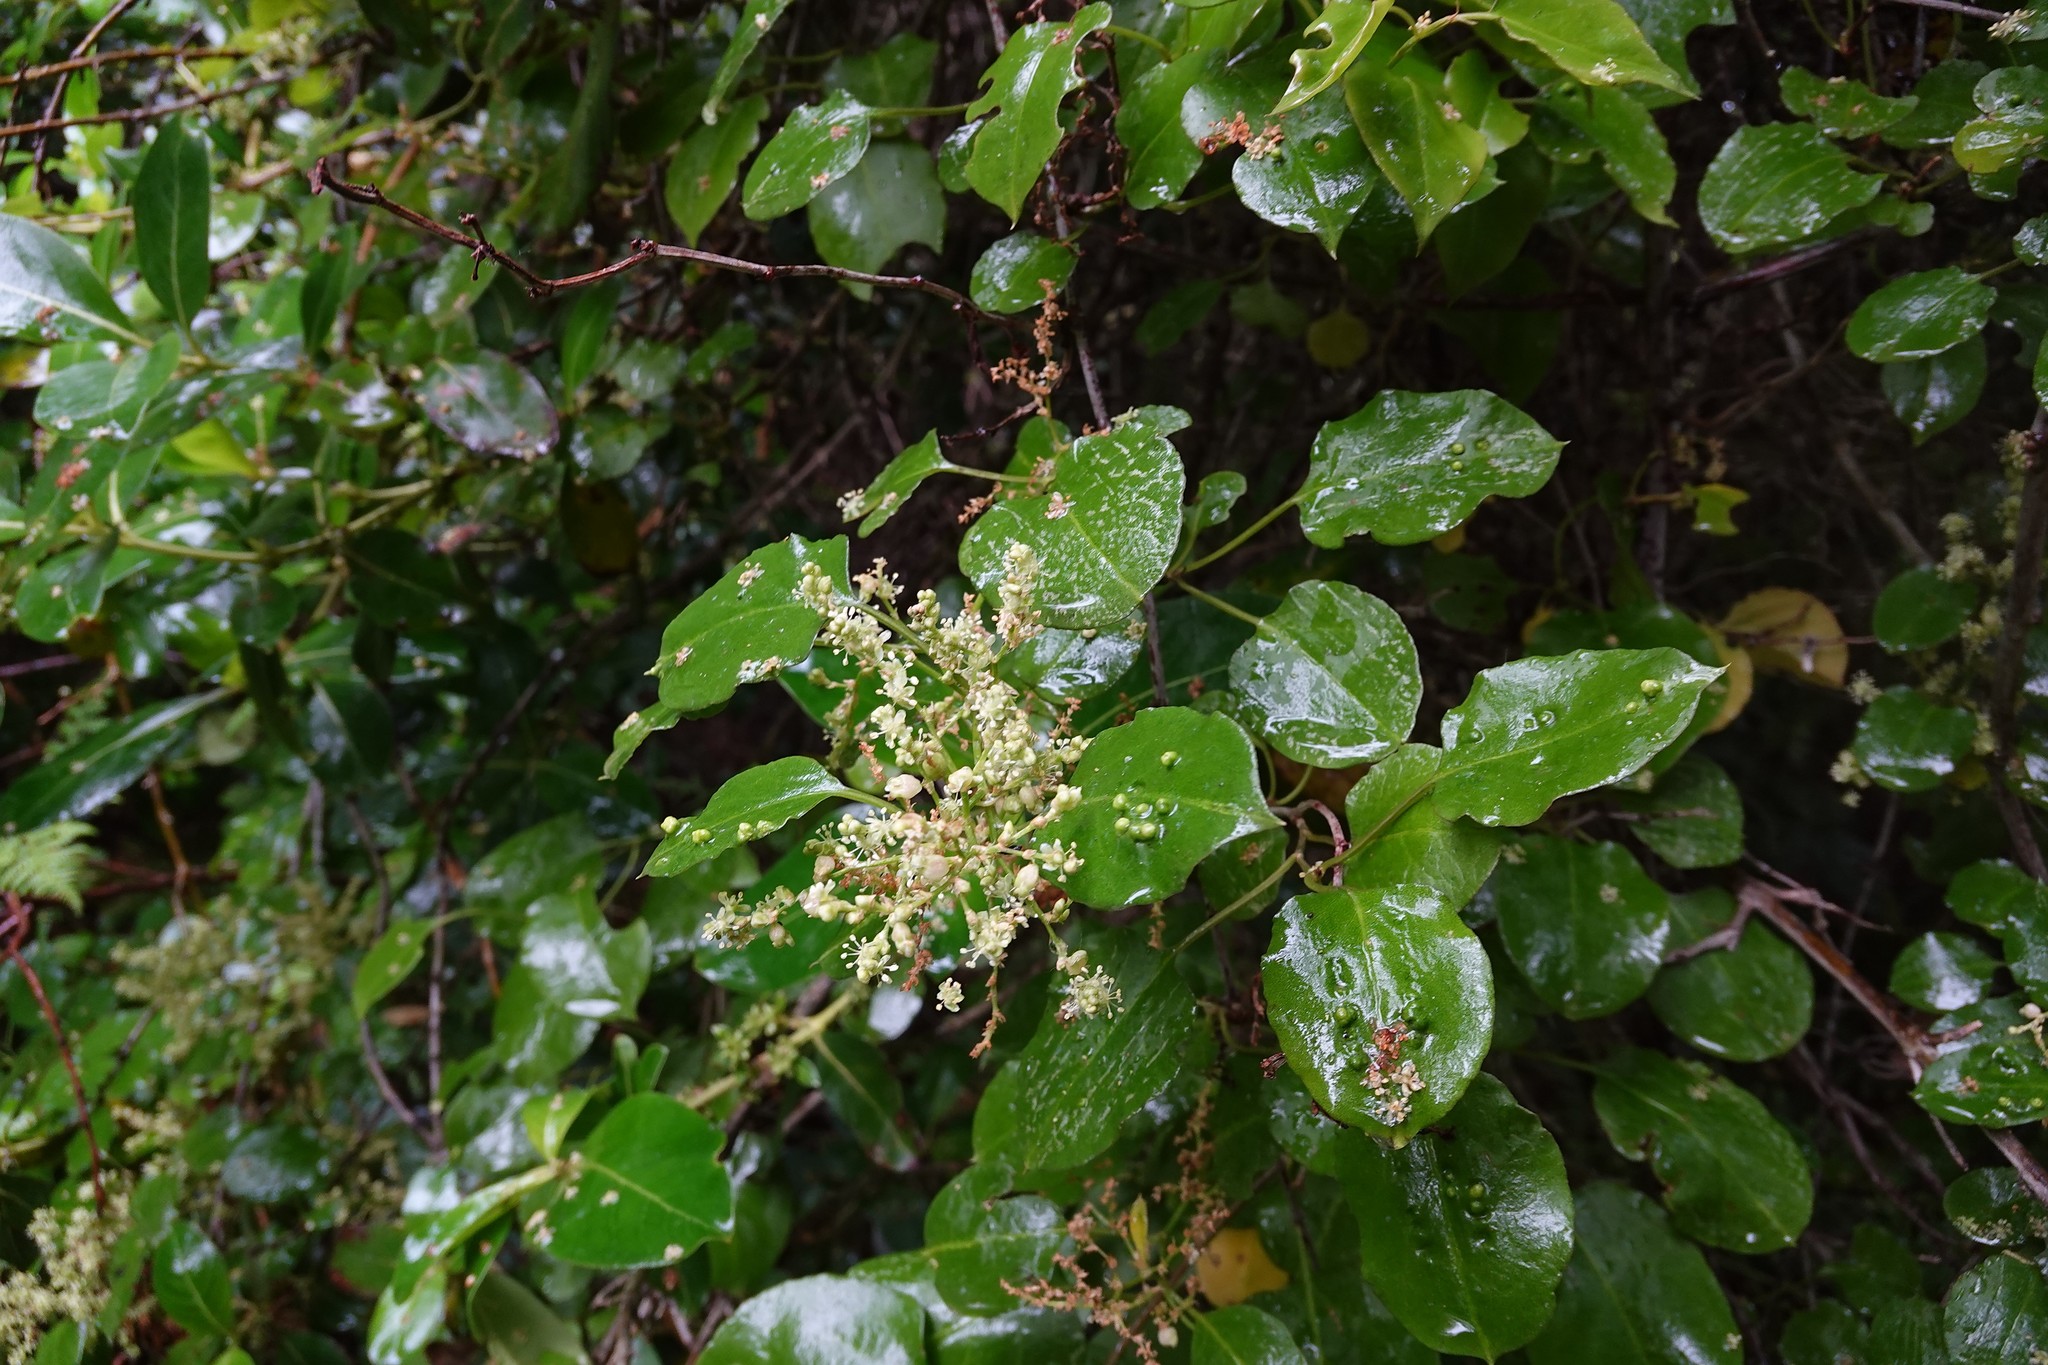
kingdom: Plantae
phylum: Tracheophyta
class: Magnoliopsida
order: Caryophyllales
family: Polygonaceae
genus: Muehlenbeckia
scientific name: Muehlenbeckia australis
